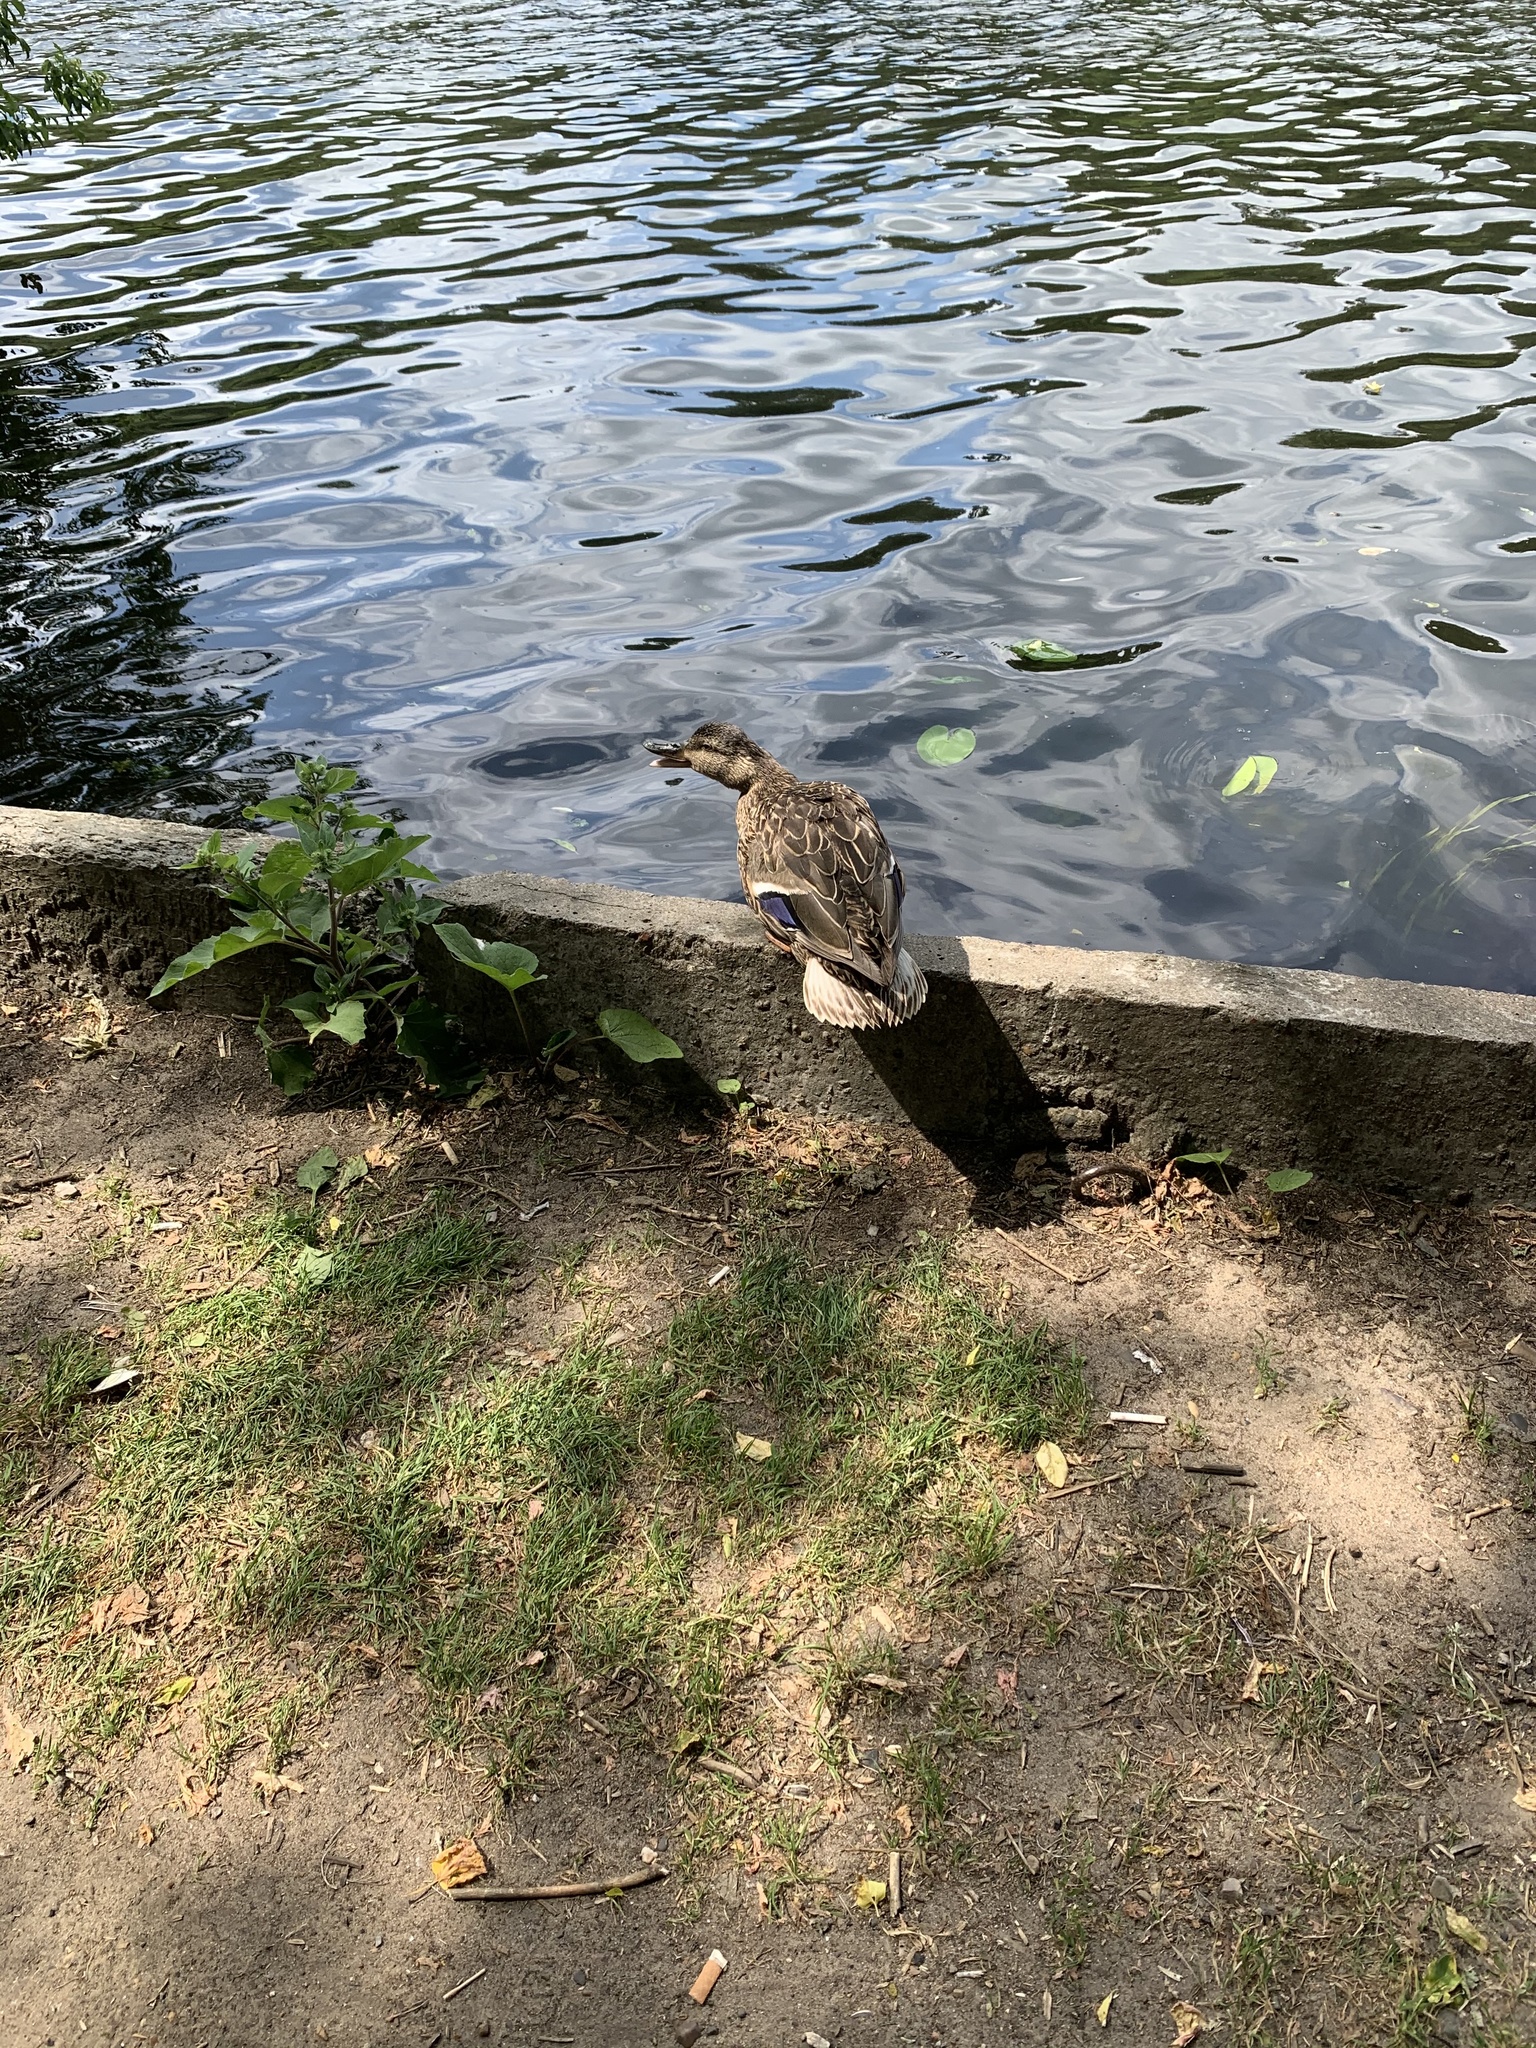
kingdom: Animalia
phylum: Chordata
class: Aves
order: Anseriformes
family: Anatidae
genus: Anas
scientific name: Anas platyrhynchos
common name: Mallard
